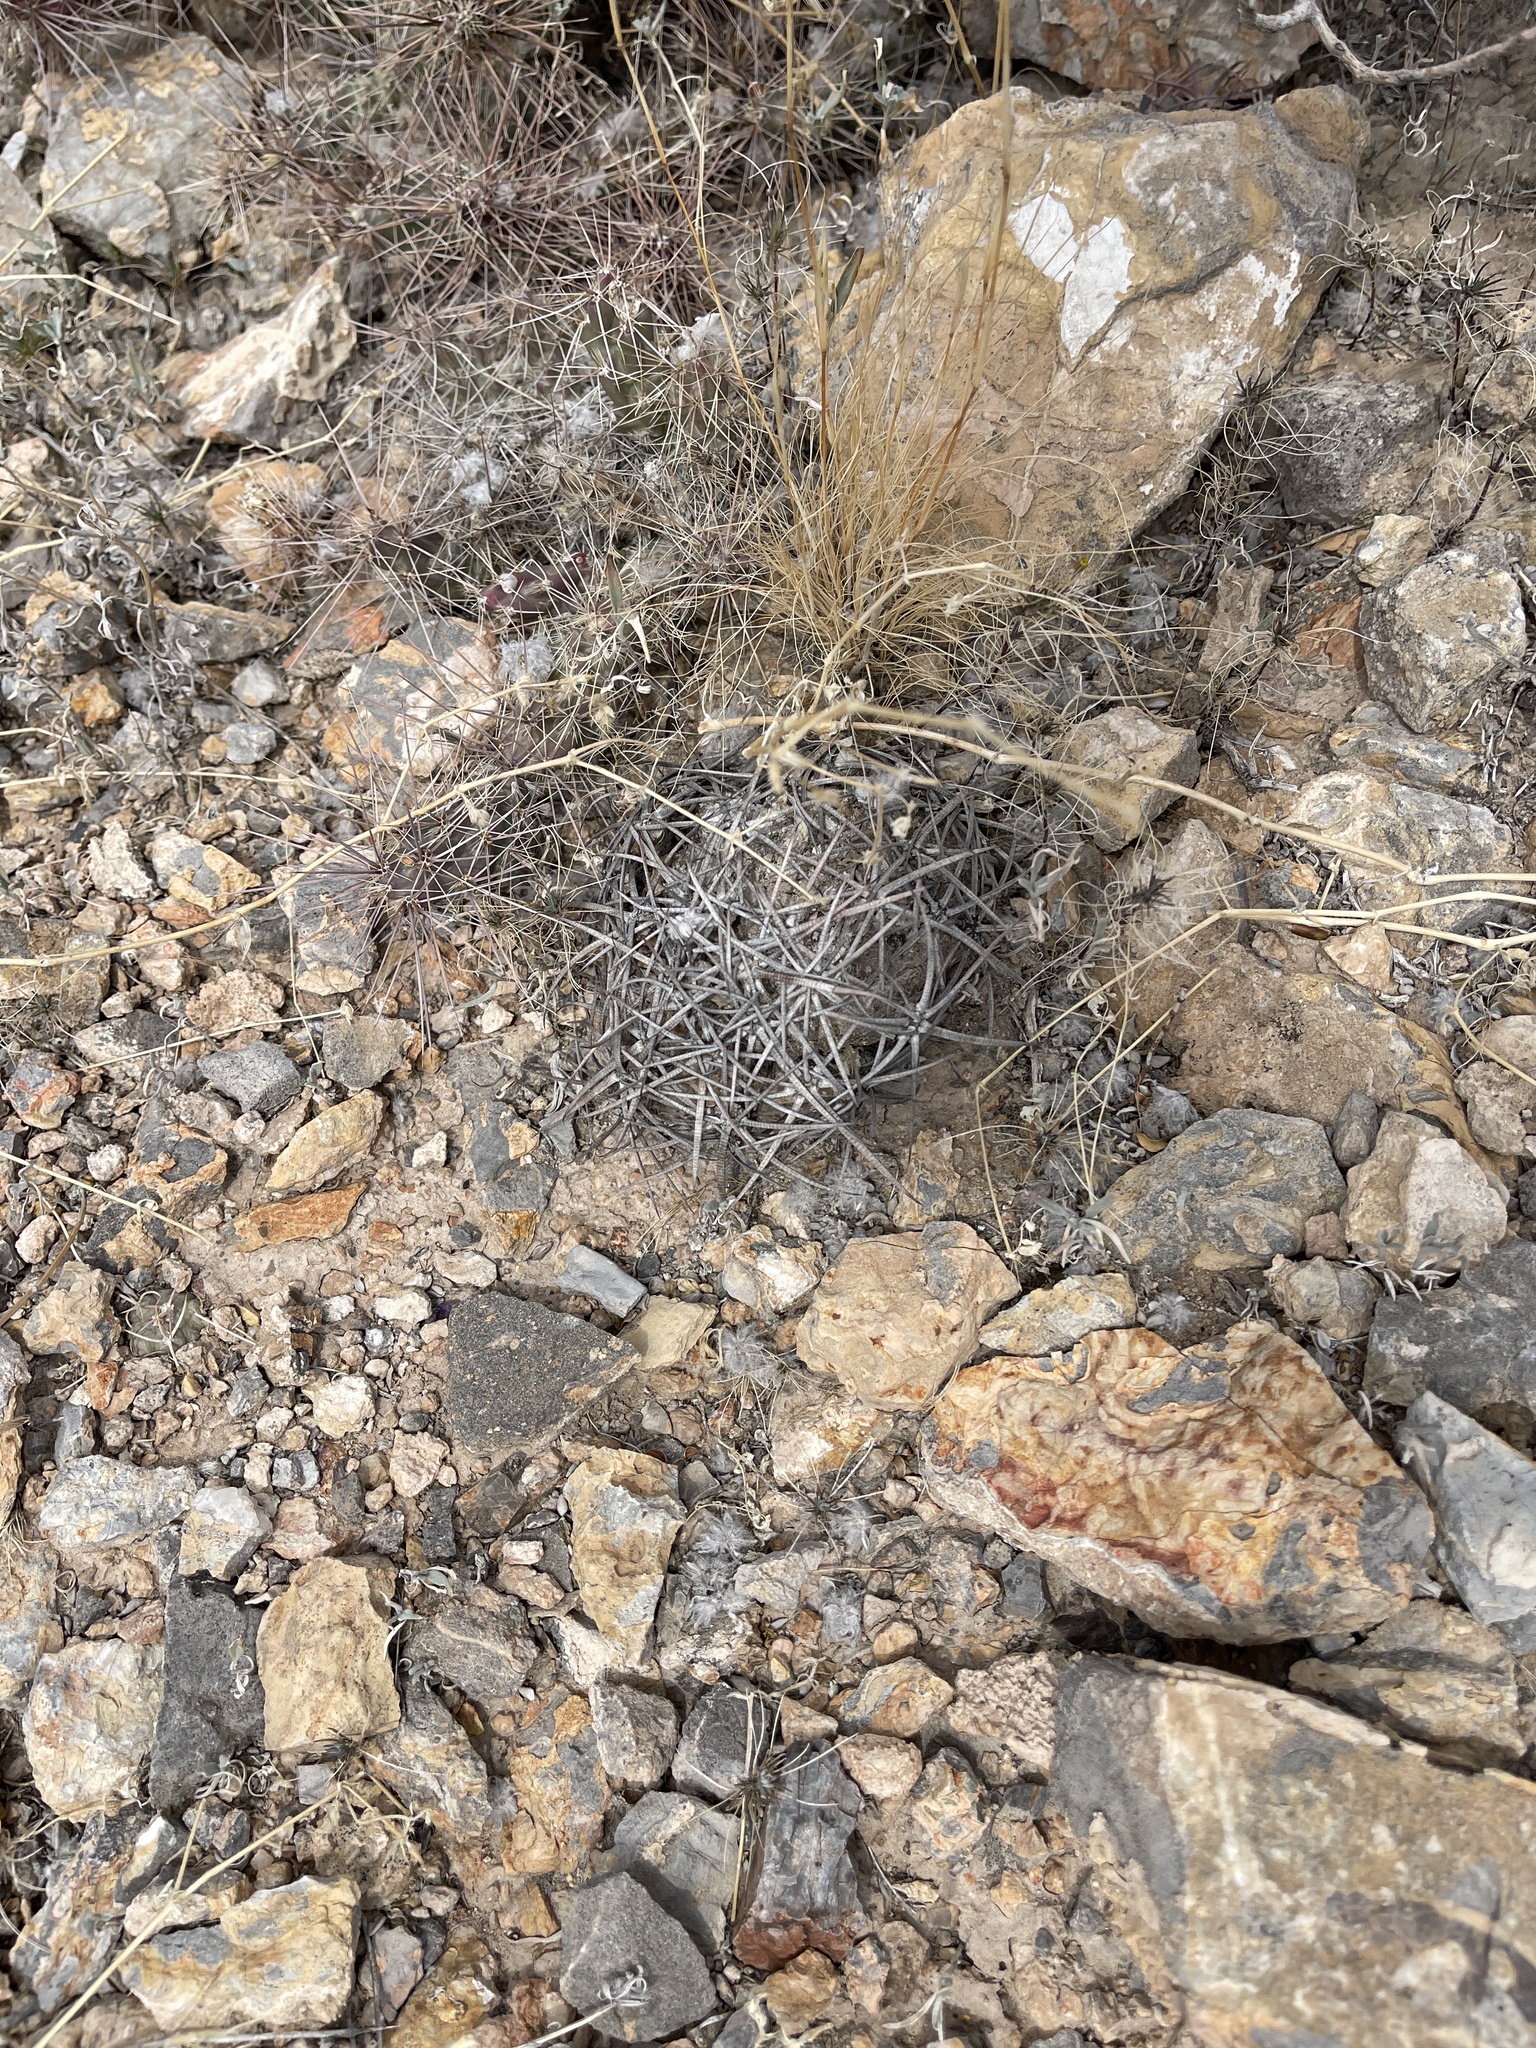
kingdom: Plantae
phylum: Tracheophyta
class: Magnoliopsida
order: Caryophyllales
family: Cactaceae
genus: Echinocactus
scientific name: Echinocactus horizonthalonius
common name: Devilshead
